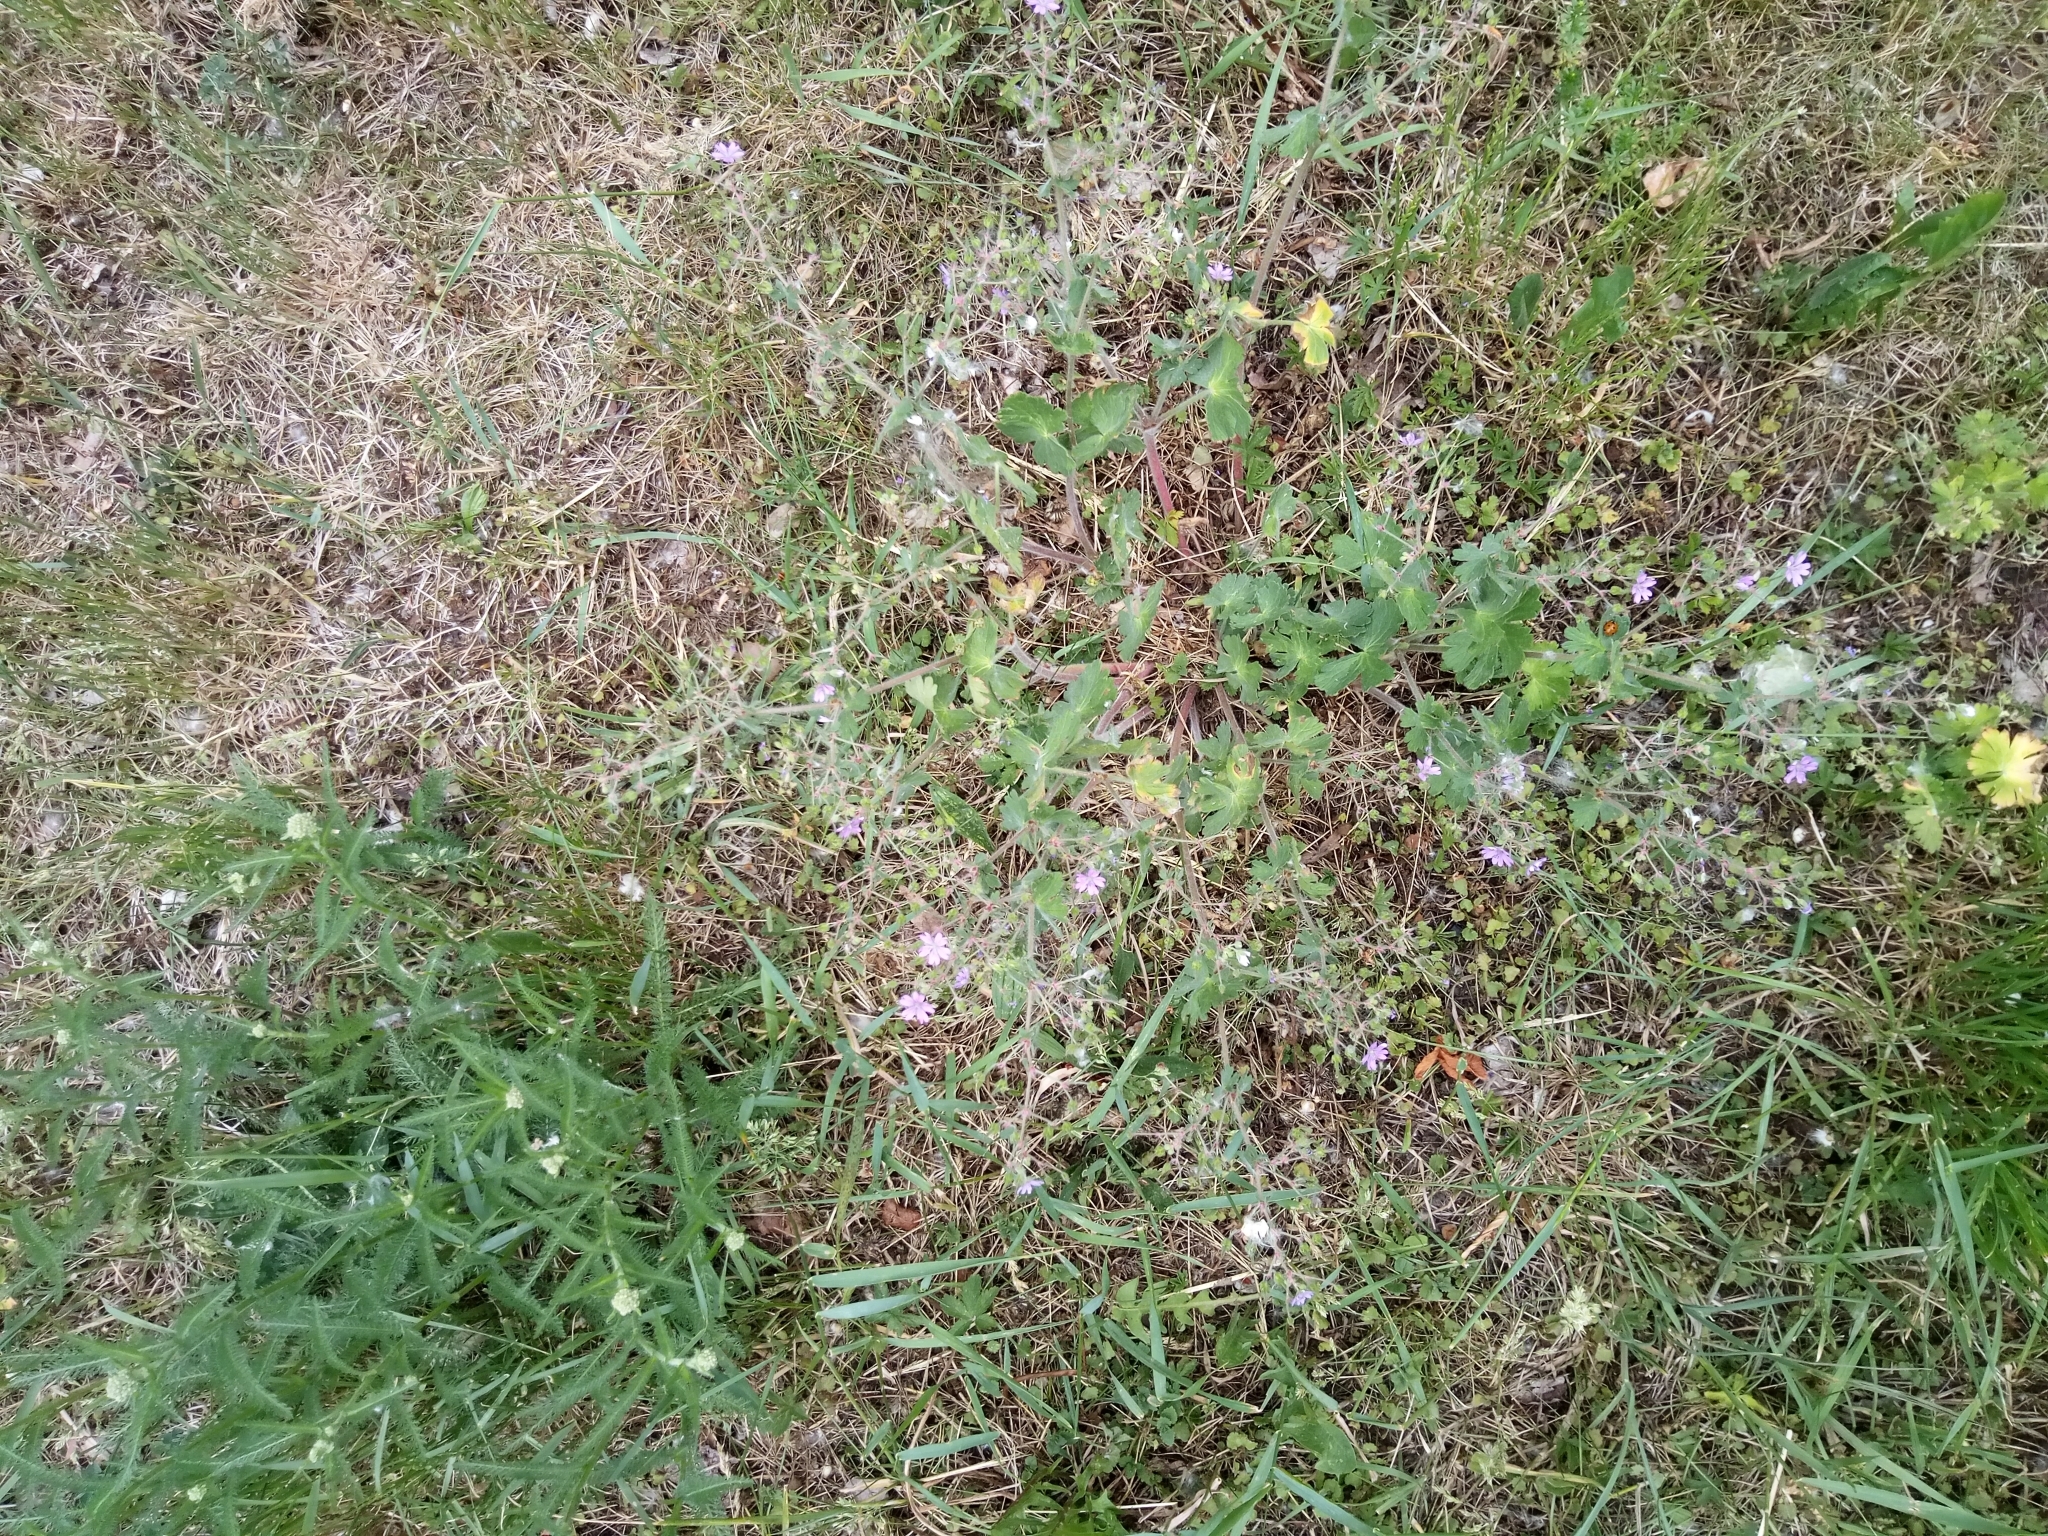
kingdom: Plantae
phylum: Tracheophyta
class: Magnoliopsida
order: Geraniales
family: Geraniaceae
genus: Geranium
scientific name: Geranium pyrenaicum
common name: Hedgerow crane's-bill
